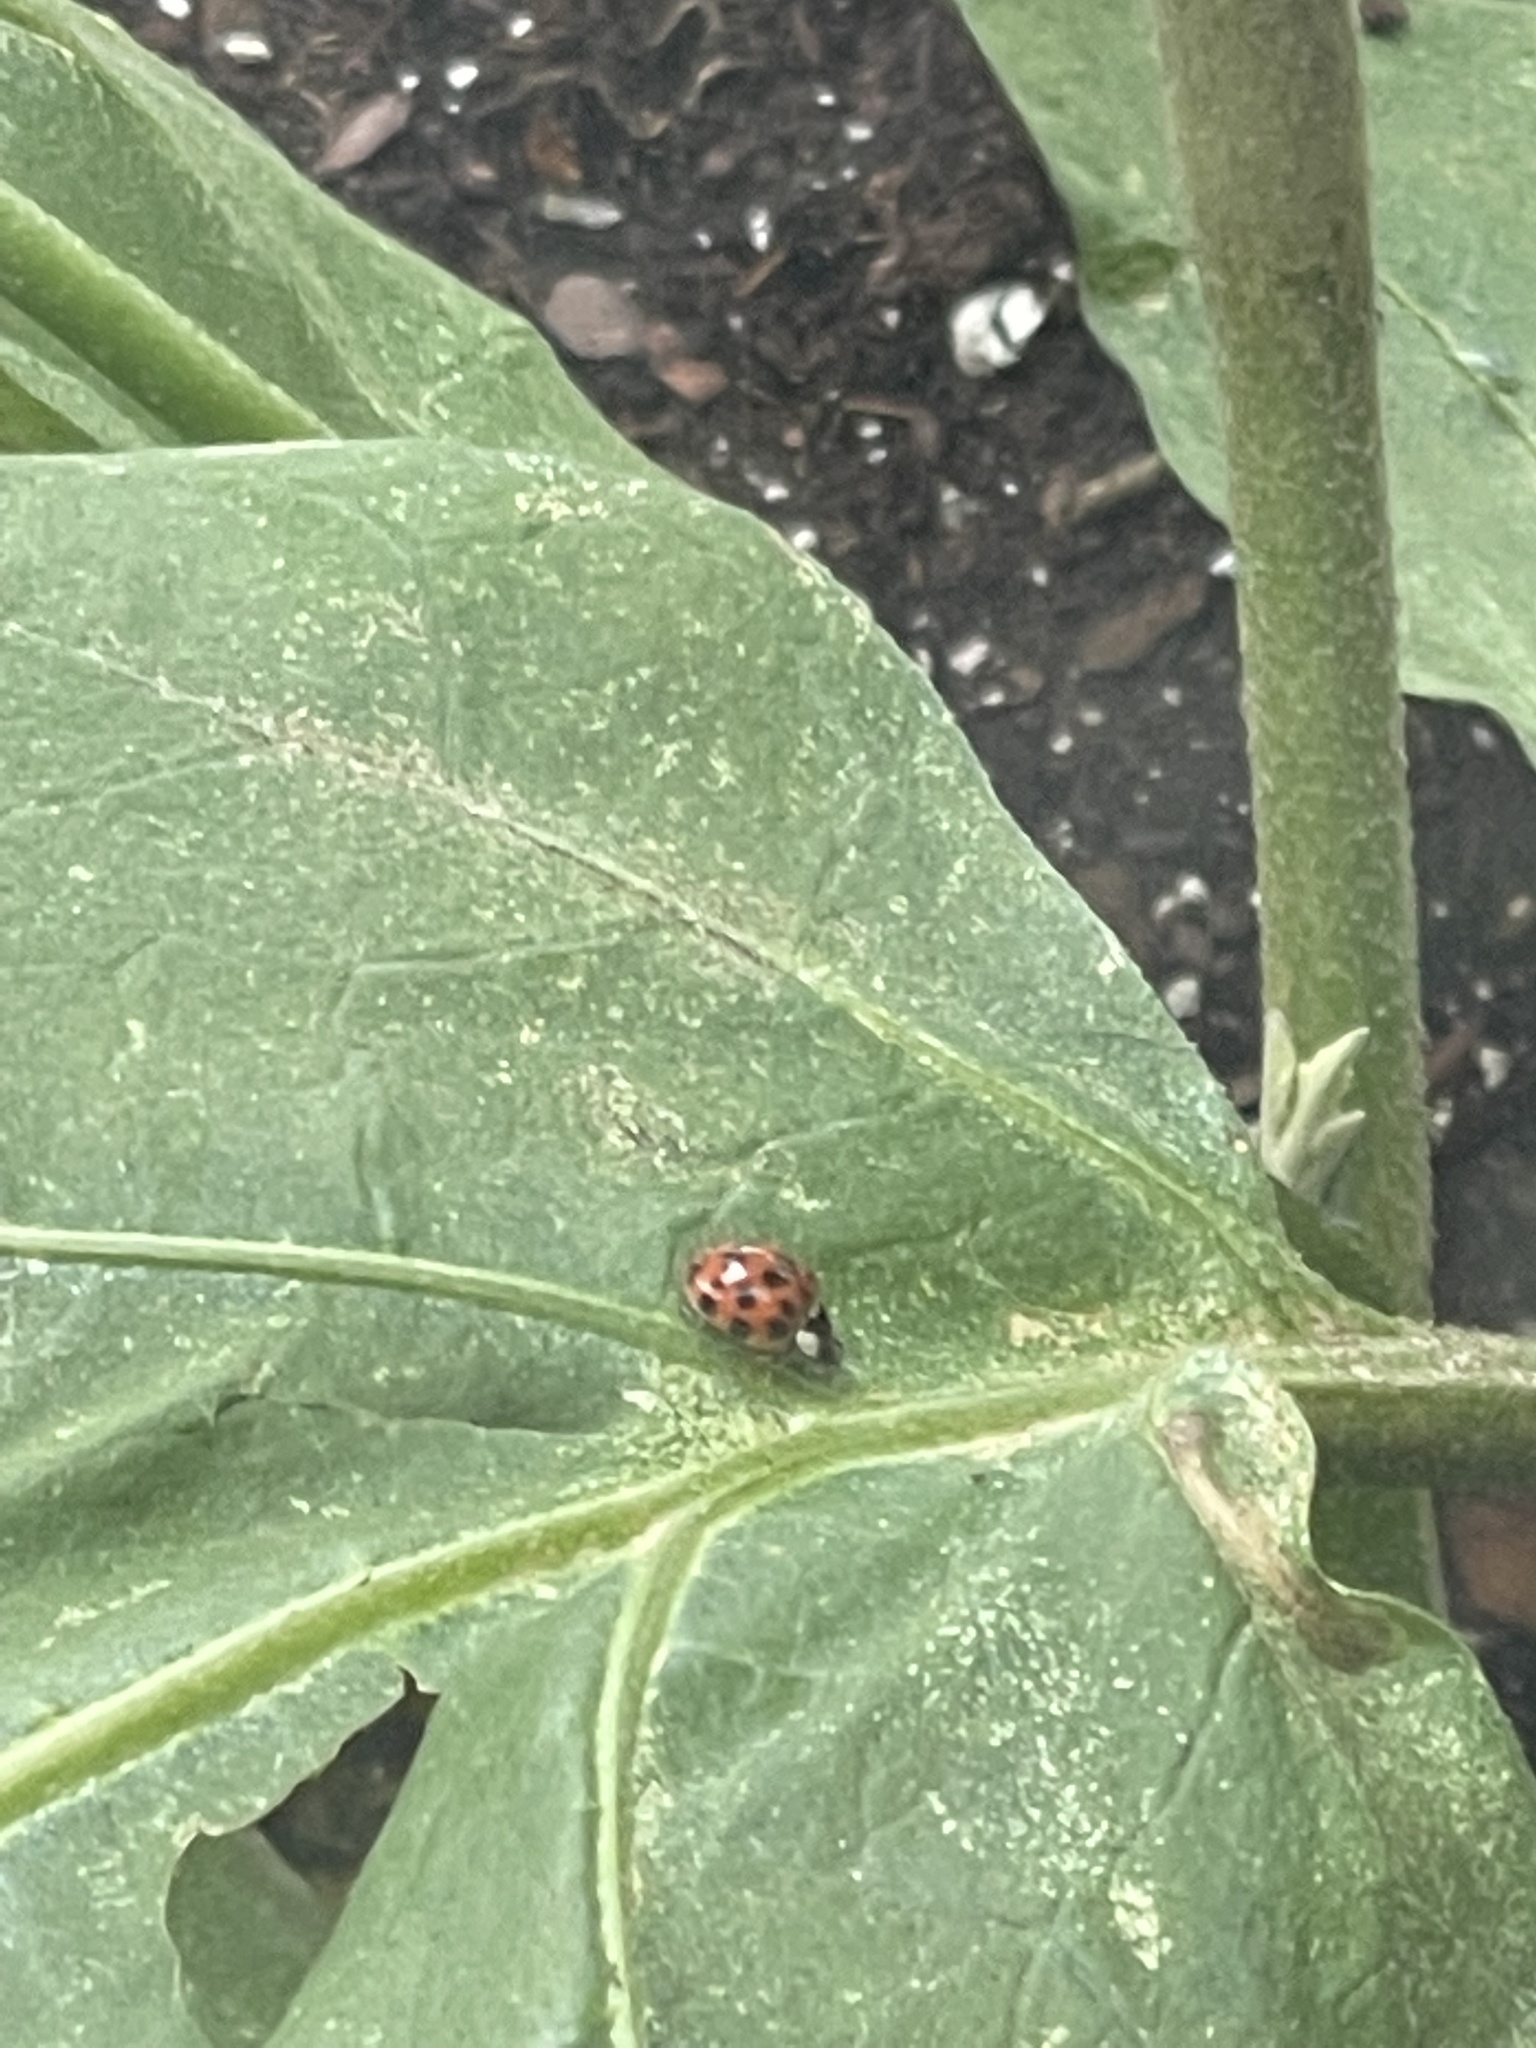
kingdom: Animalia
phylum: Arthropoda
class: Insecta
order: Coleoptera
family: Coccinellidae
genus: Harmonia
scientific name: Harmonia axyridis
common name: Harlequin ladybird
